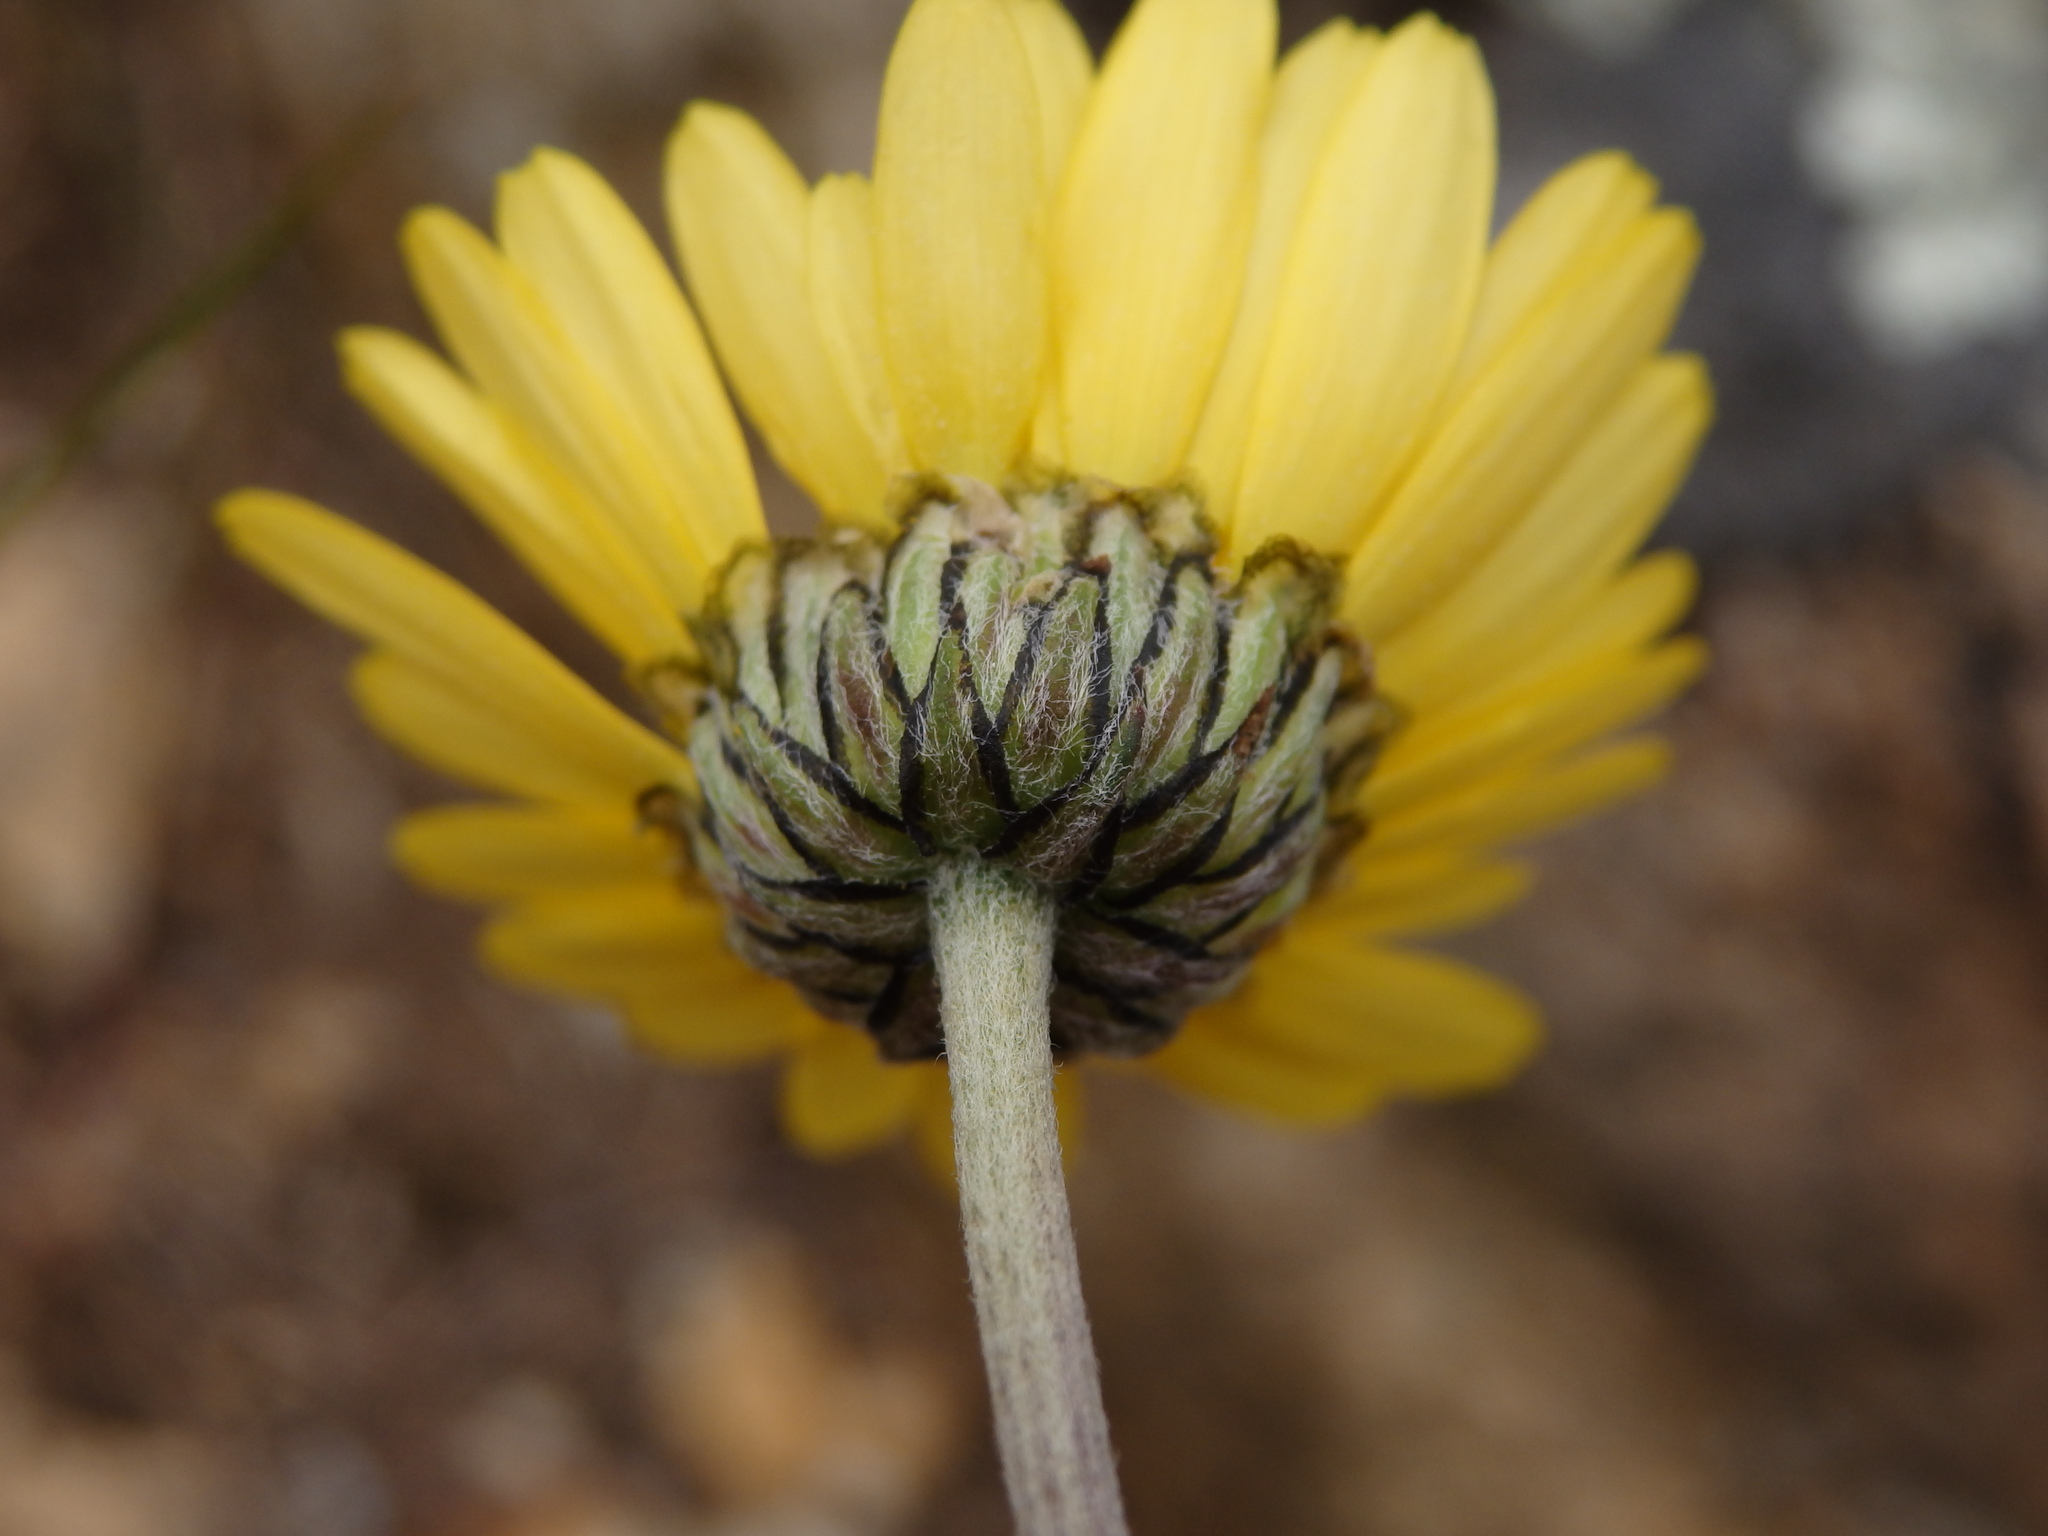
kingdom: Plantae
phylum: Tracheophyta
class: Magnoliopsida
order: Asterales
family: Asteraceae
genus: Leucanthemopsis
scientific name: Leucanthemopsis flaveola
